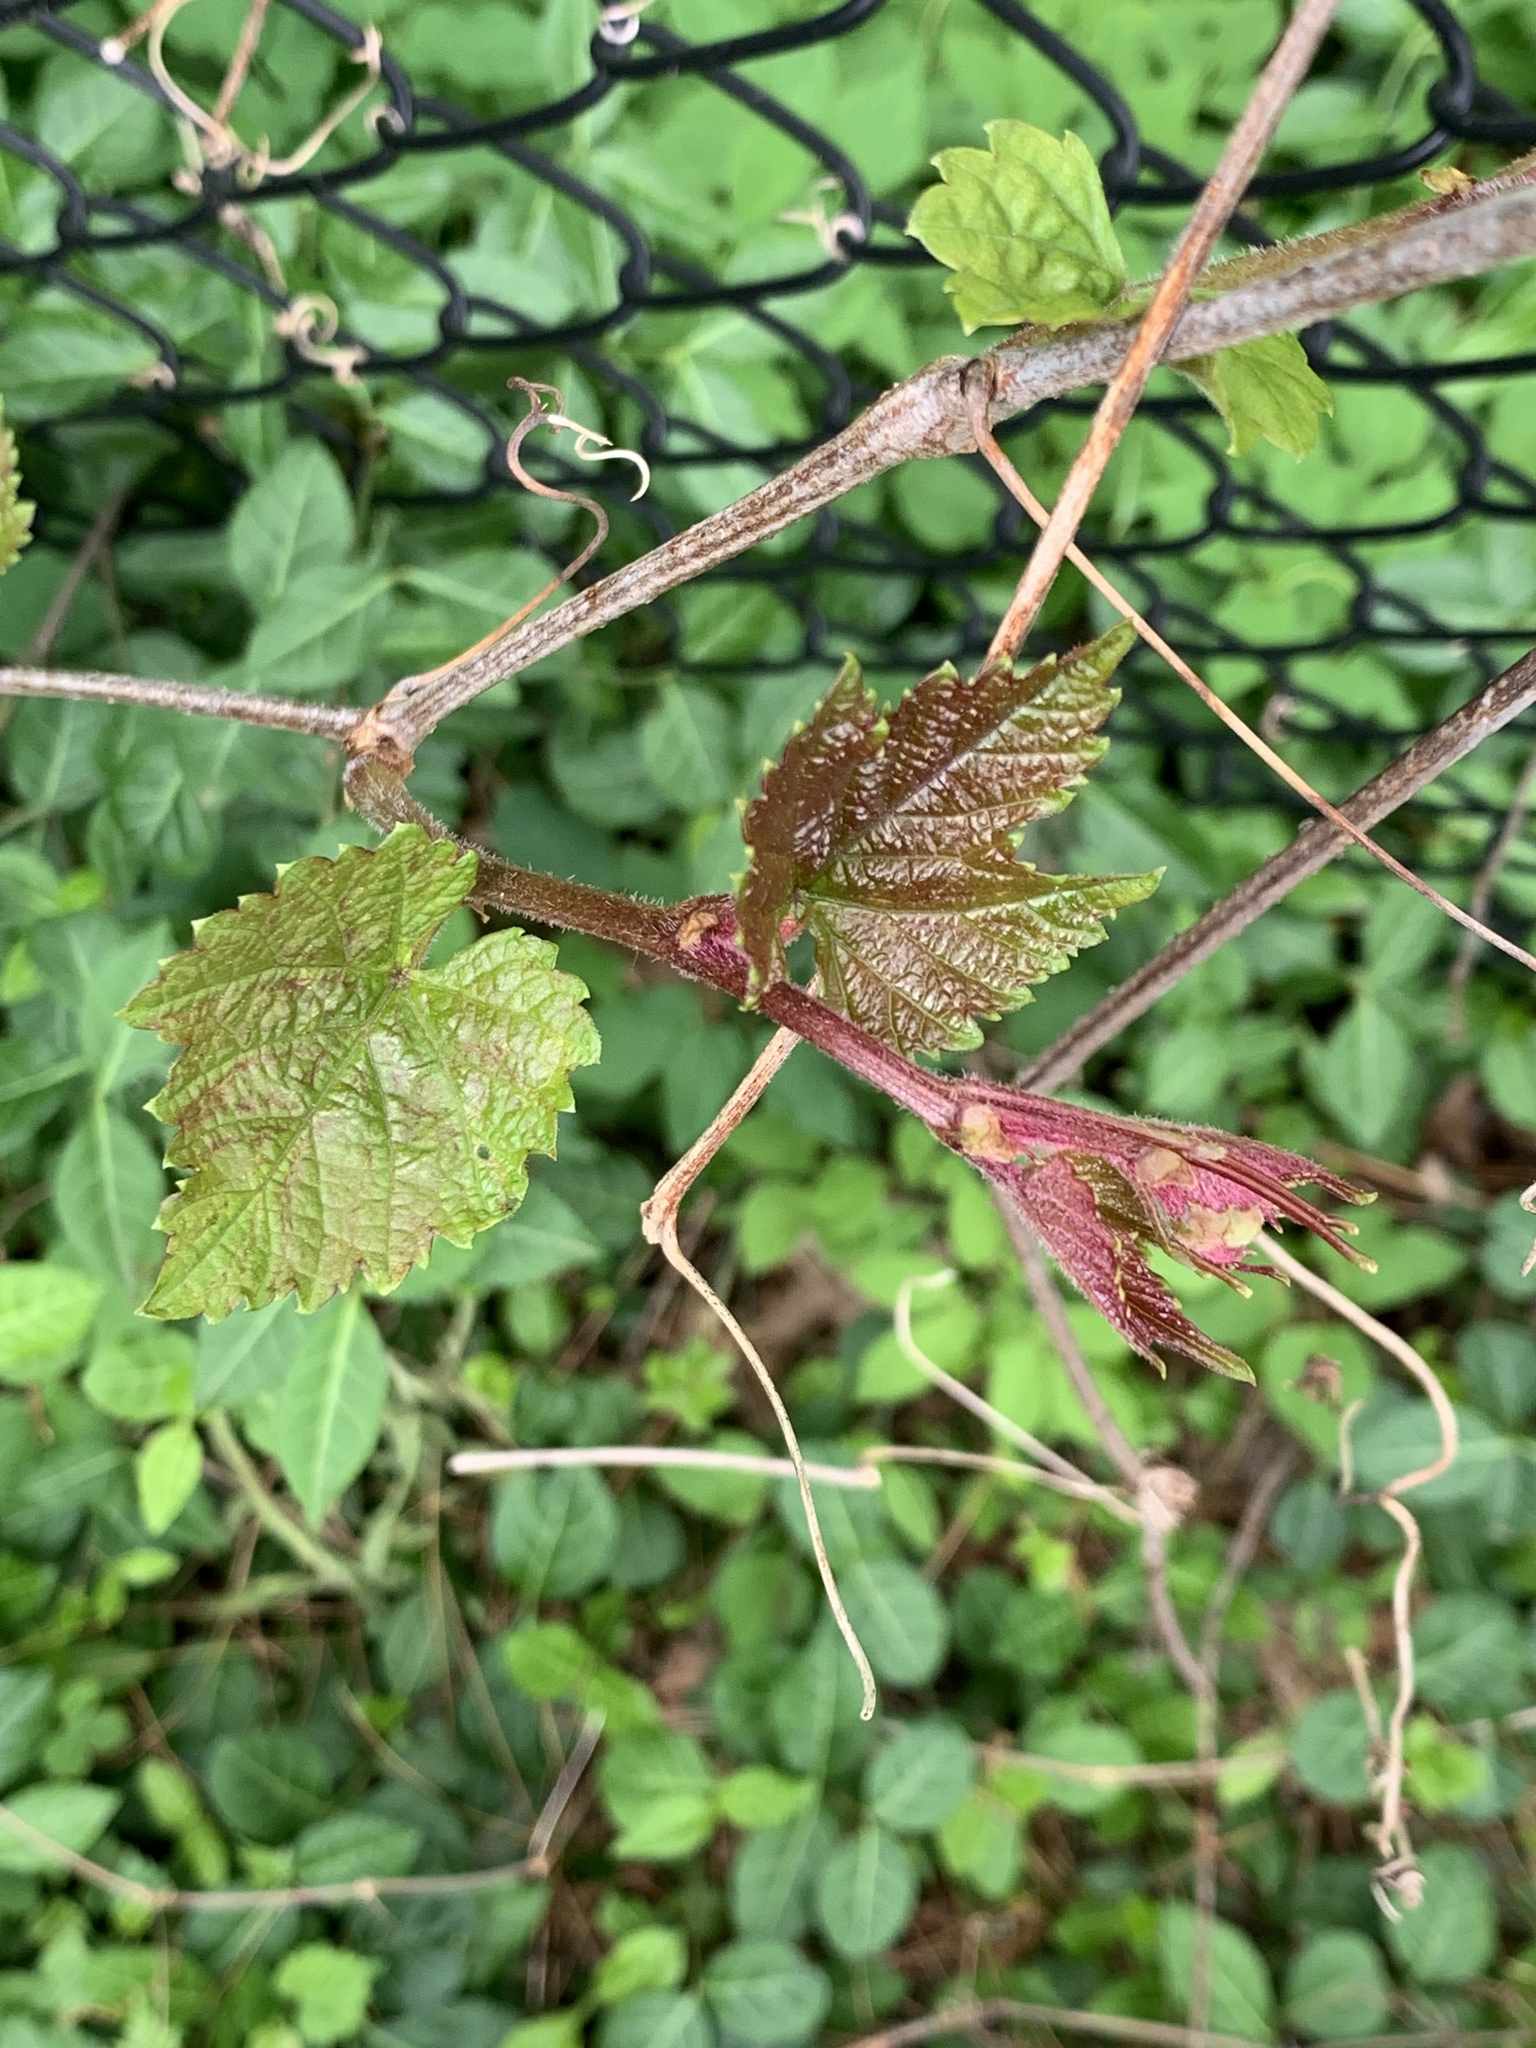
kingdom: Plantae
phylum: Tracheophyta
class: Magnoliopsida
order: Vitales
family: Vitaceae
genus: Ampelopsis
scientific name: Ampelopsis glandulosa
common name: Amur peppervine
